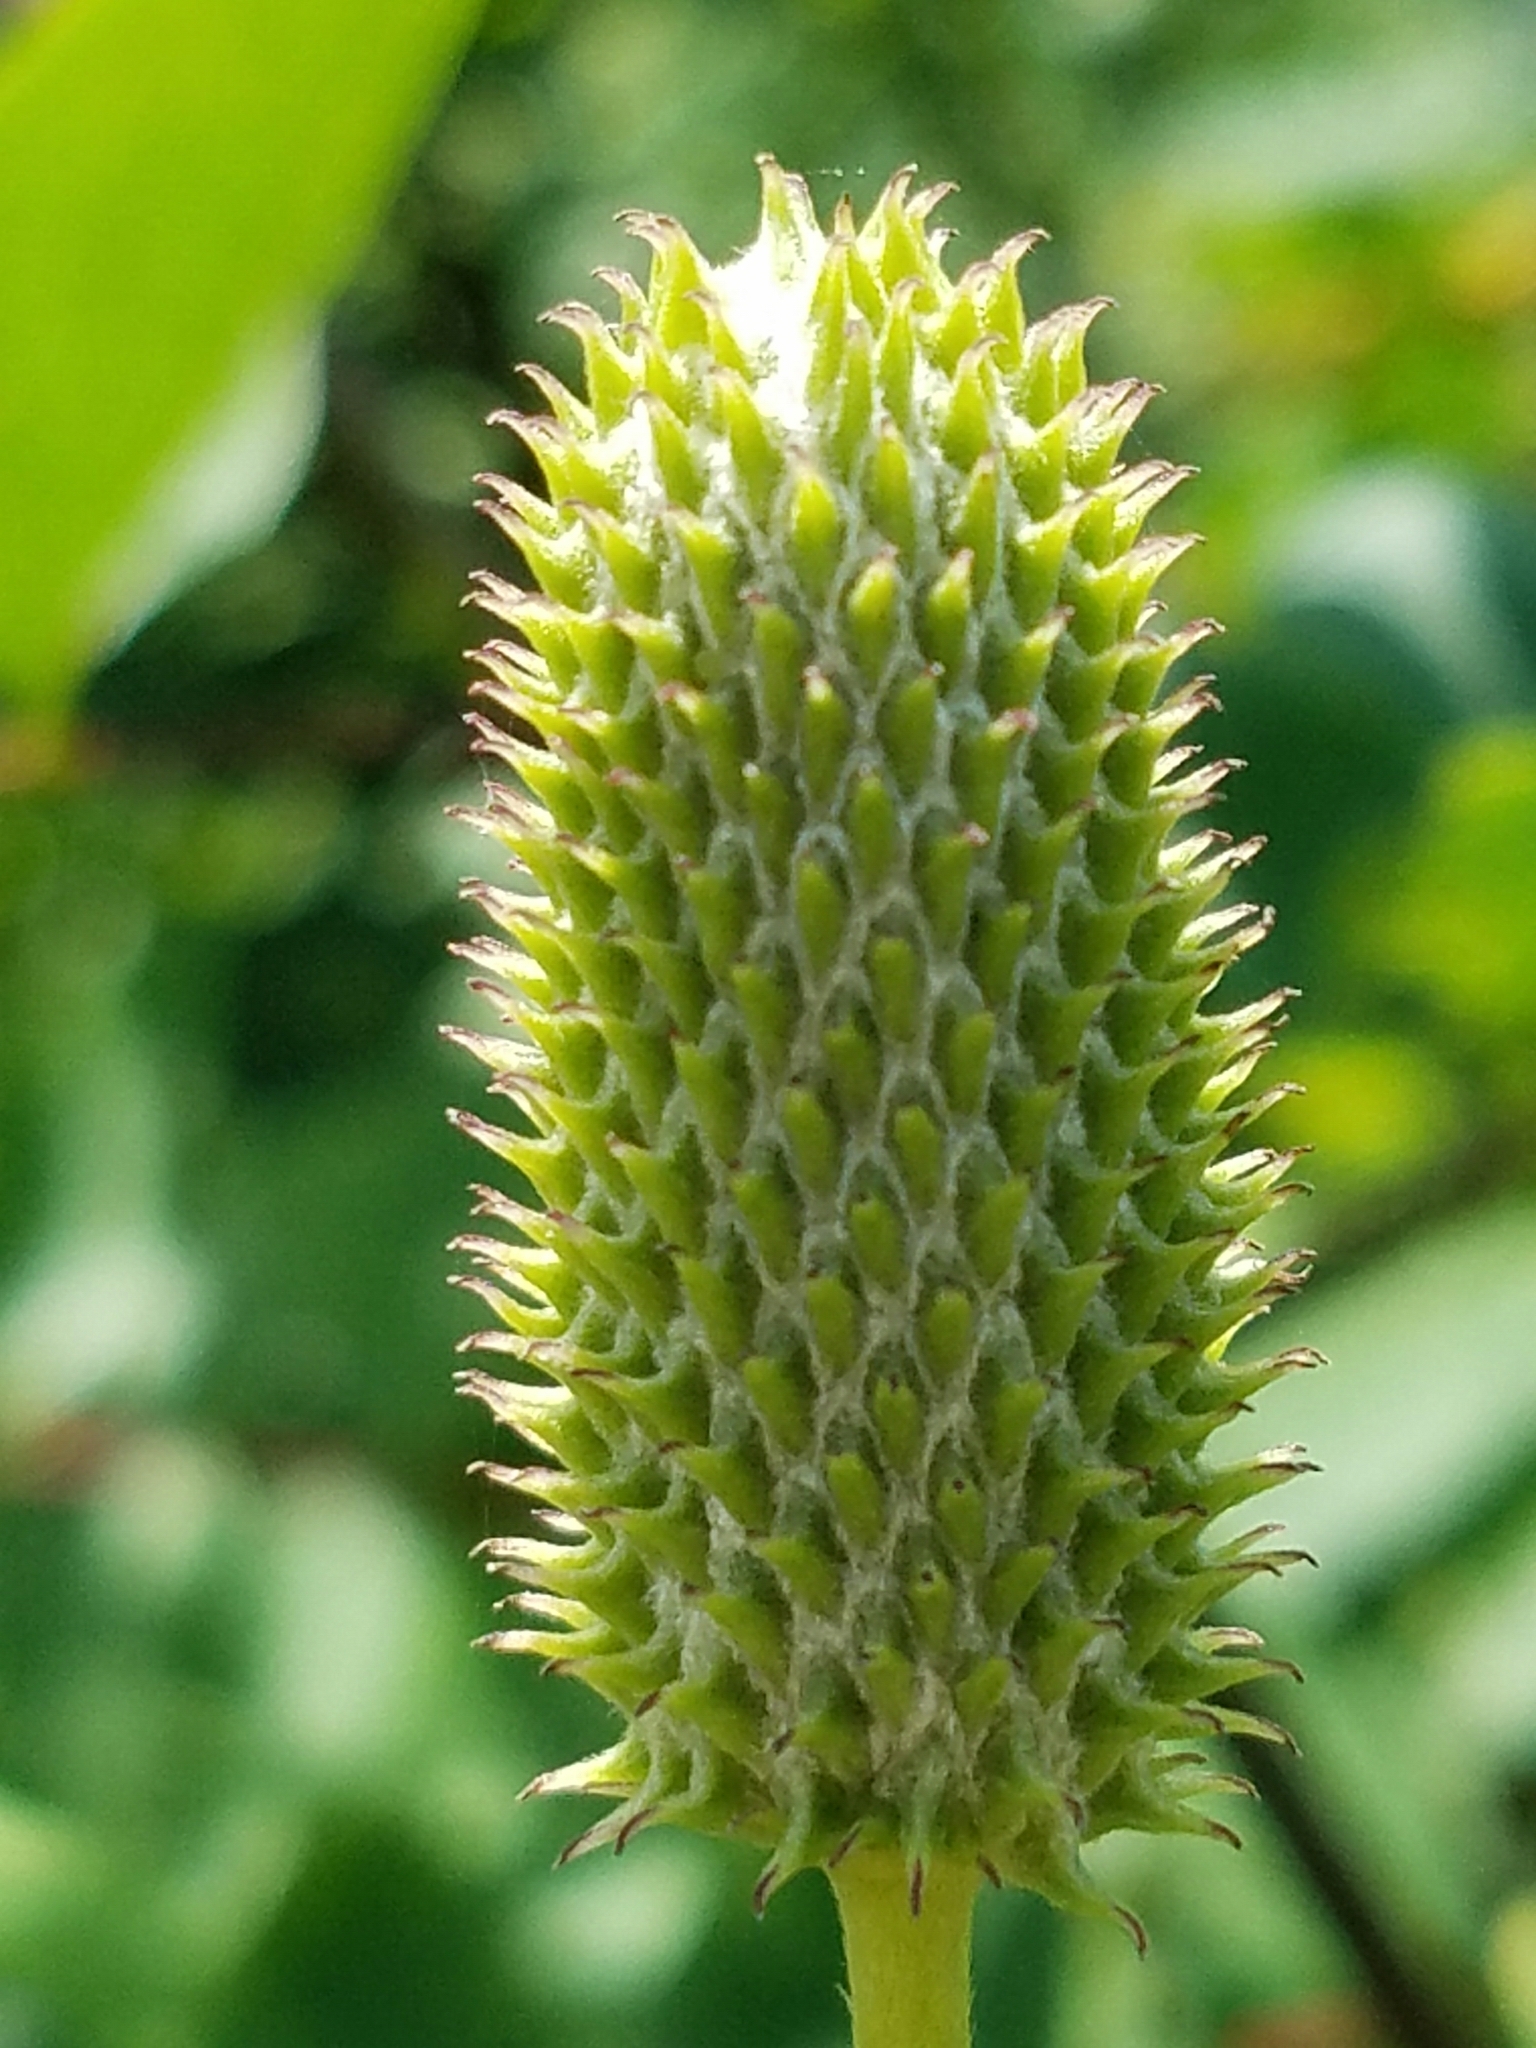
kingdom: Plantae
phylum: Tracheophyta
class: Magnoliopsida
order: Ranunculales
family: Ranunculaceae
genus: Anemone
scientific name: Anemone virginiana
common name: Tall anemone
